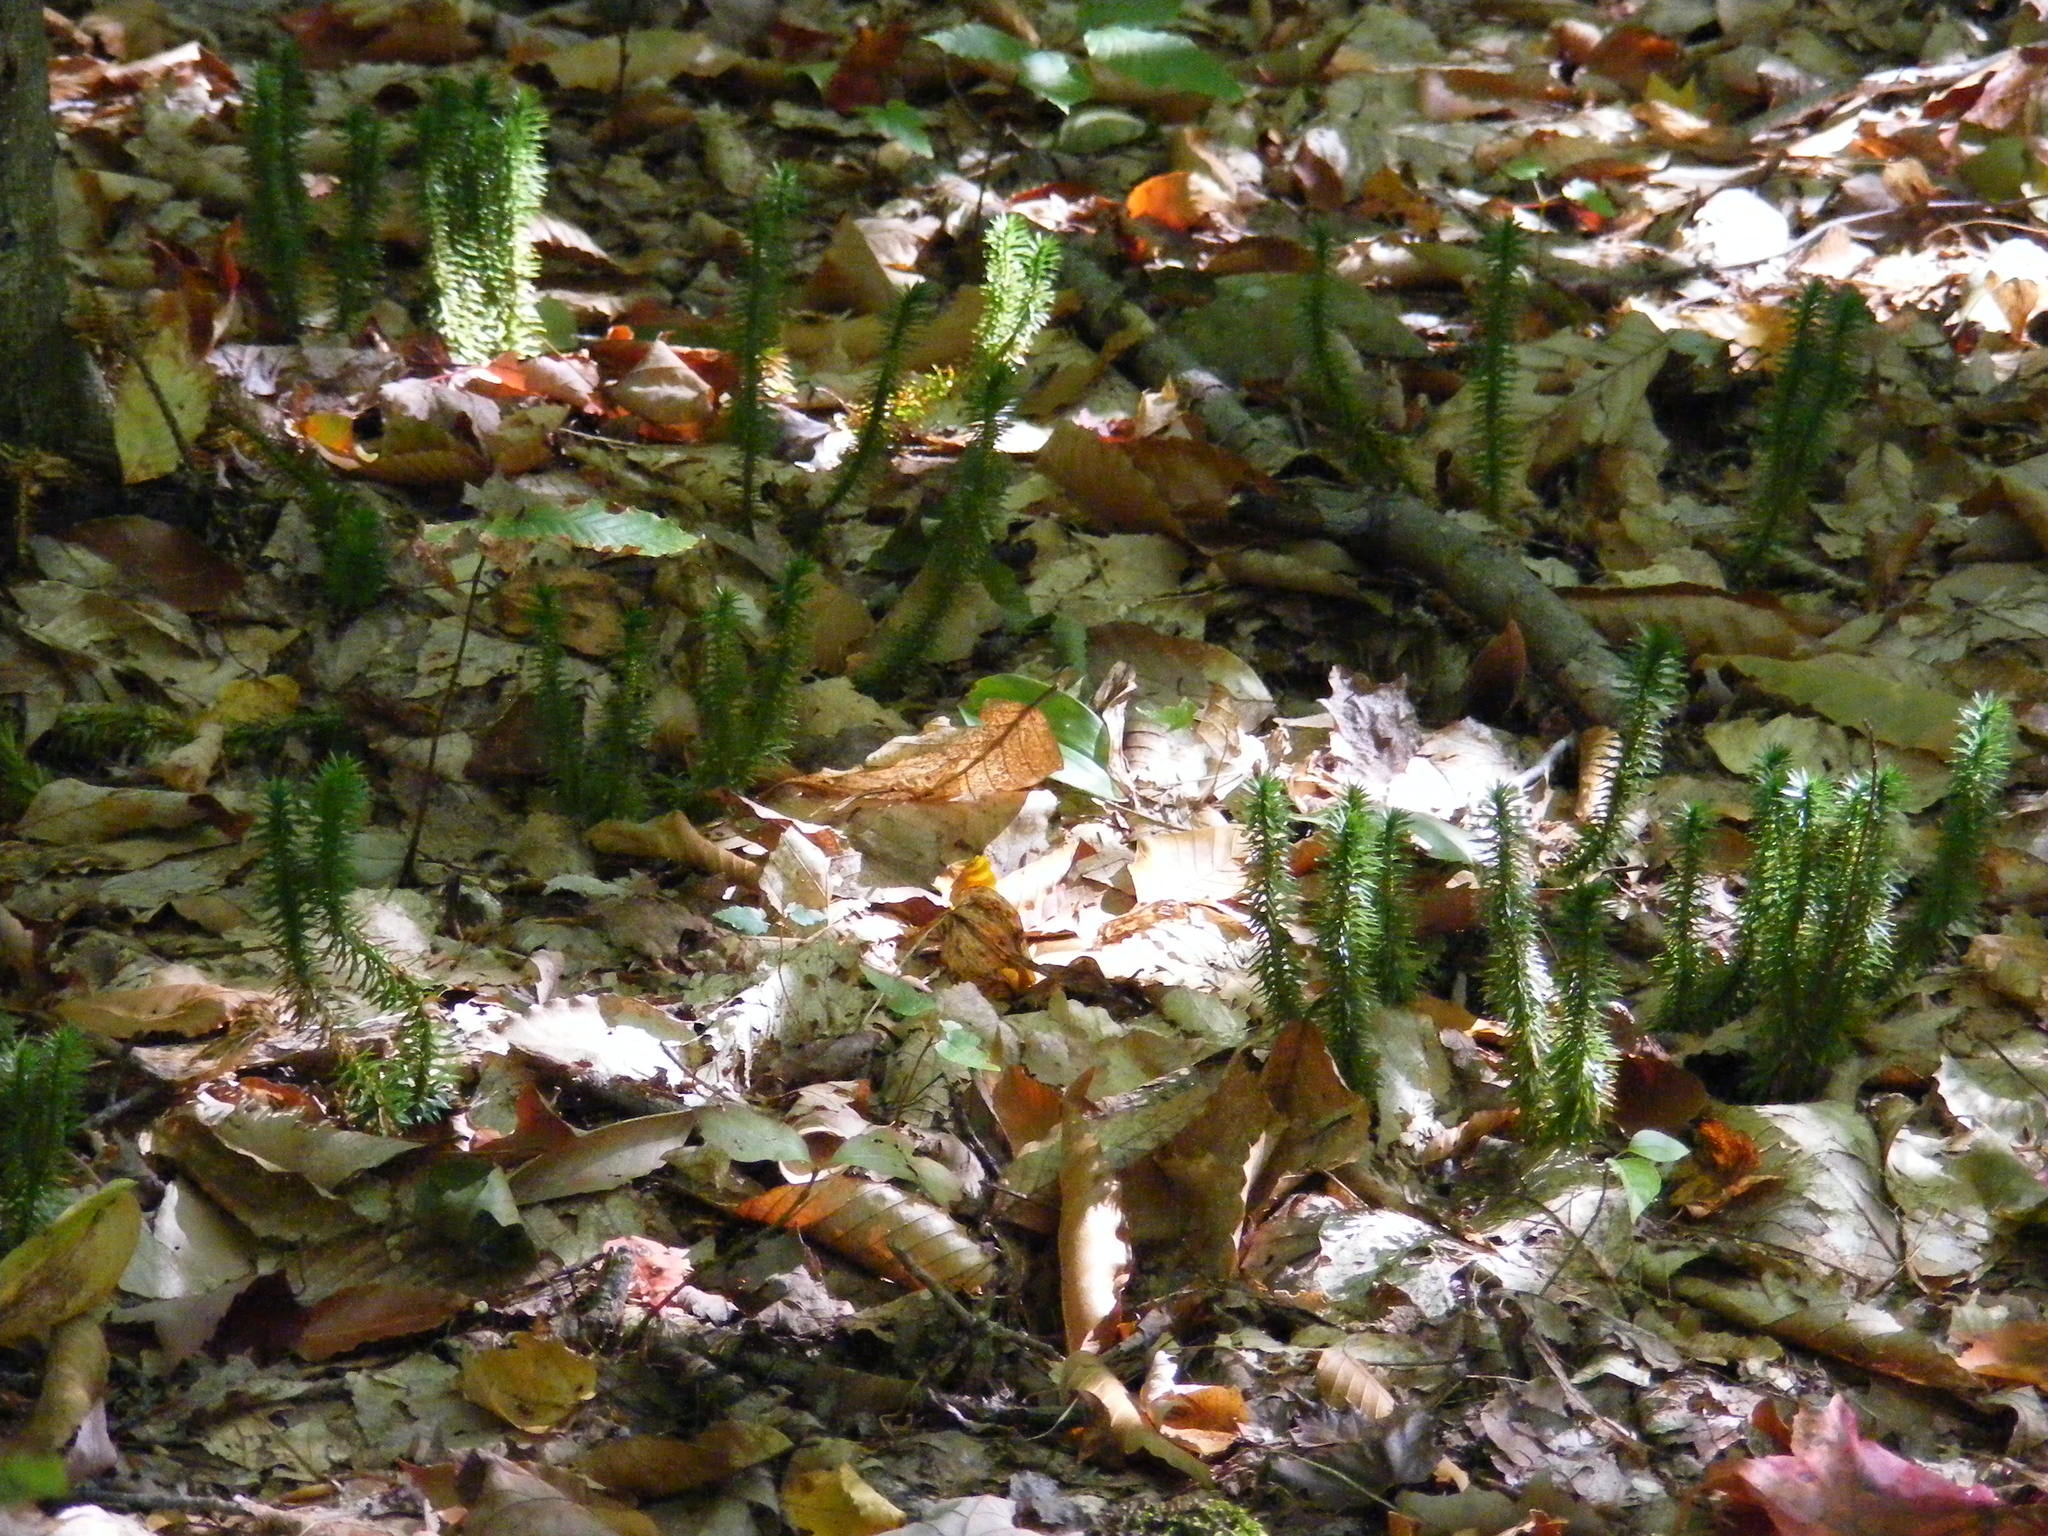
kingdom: Plantae
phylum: Tracheophyta
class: Lycopodiopsida
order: Lycopodiales
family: Lycopodiaceae
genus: Spinulum
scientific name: Spinulum annotinum
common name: Interrupted club-moss
